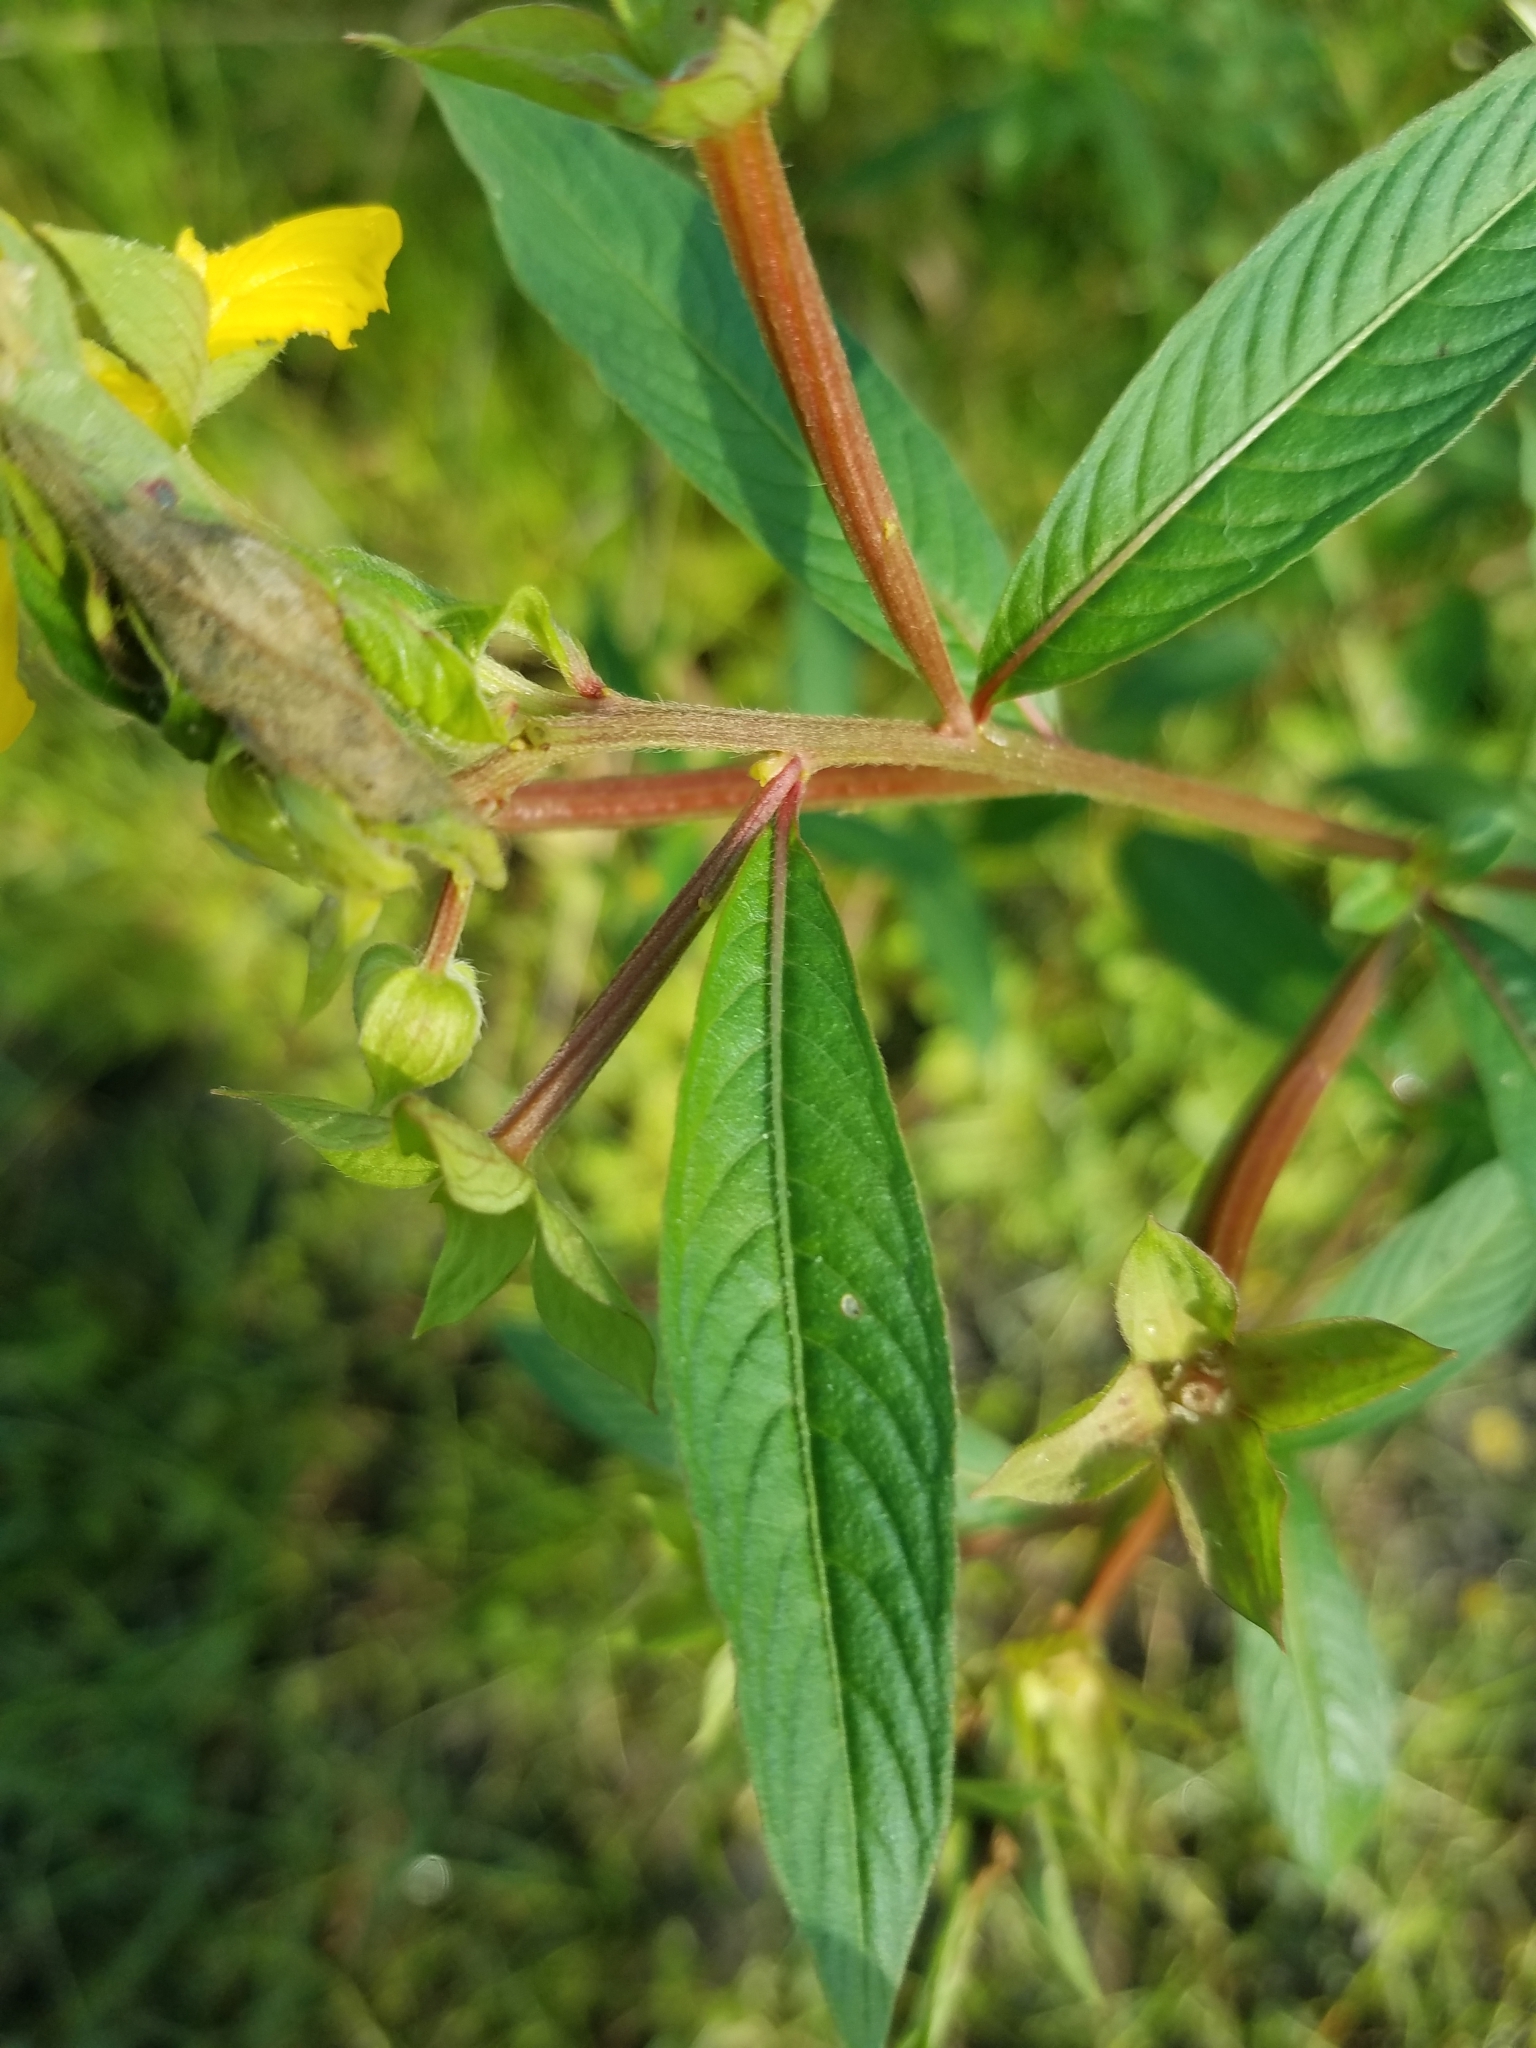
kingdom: Plantae
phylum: Tracheophyta
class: Magnoliopsida
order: Myrtales
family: Onagraceae
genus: Ludwigia
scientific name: Ludwigia octovalvis
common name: Water-primrose
